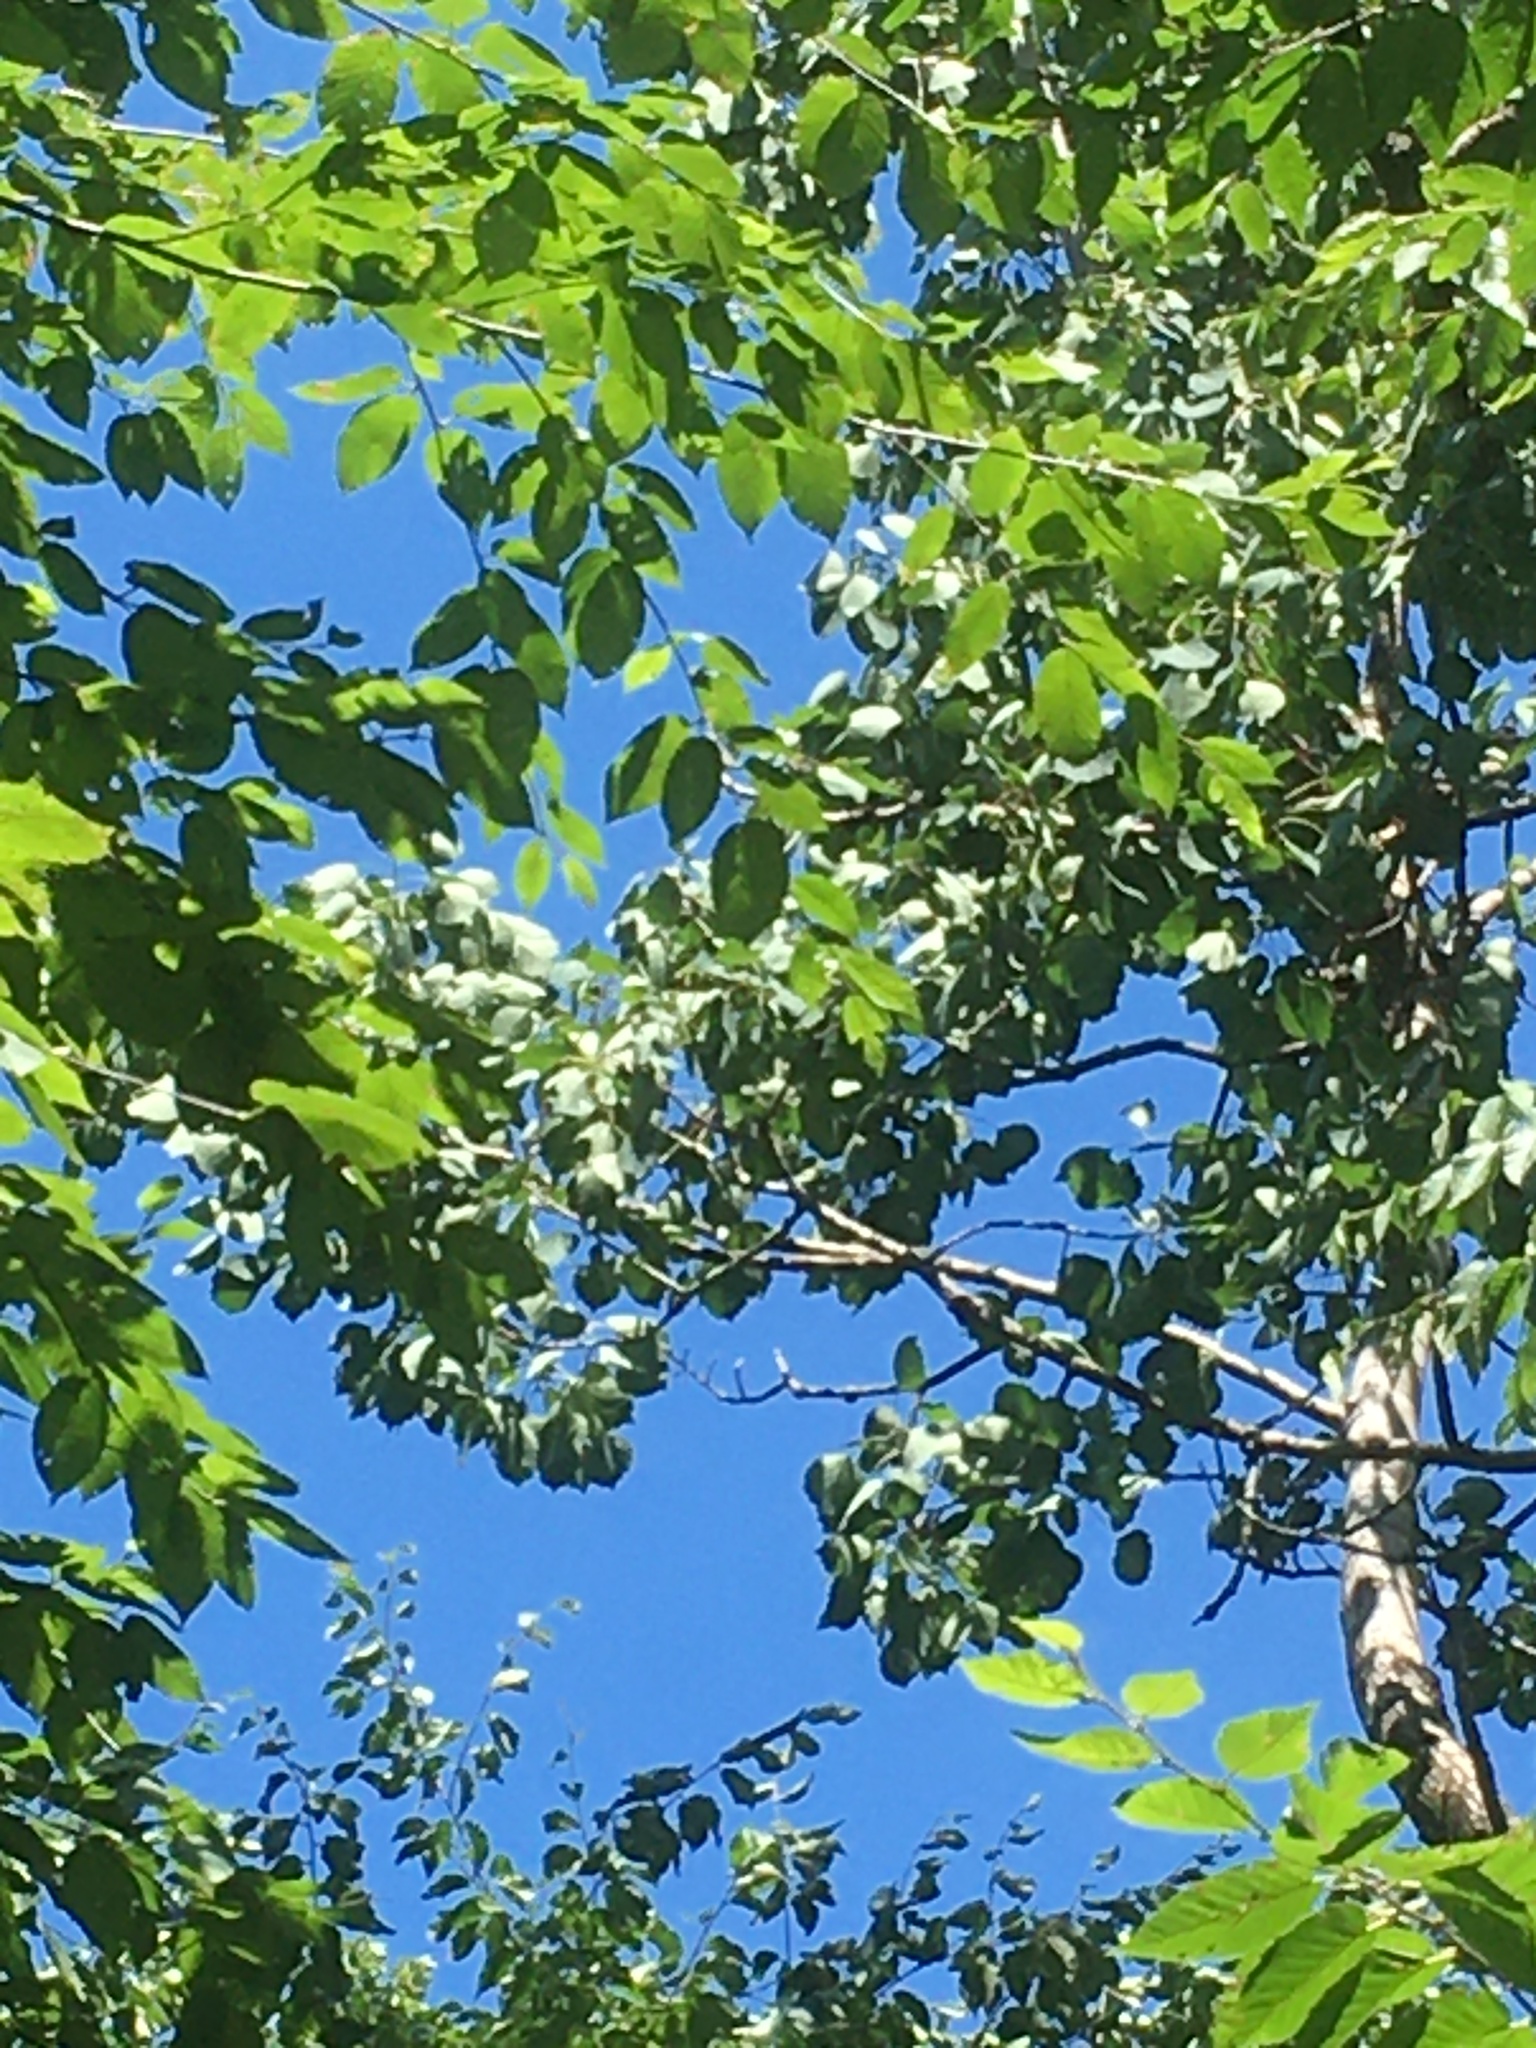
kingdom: Plantae
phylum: Tracheophyta
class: Magnoliopsida
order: Malpighiales
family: Salicaceae
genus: Populus
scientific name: Populus grandidentata
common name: Bigtooth aspen
